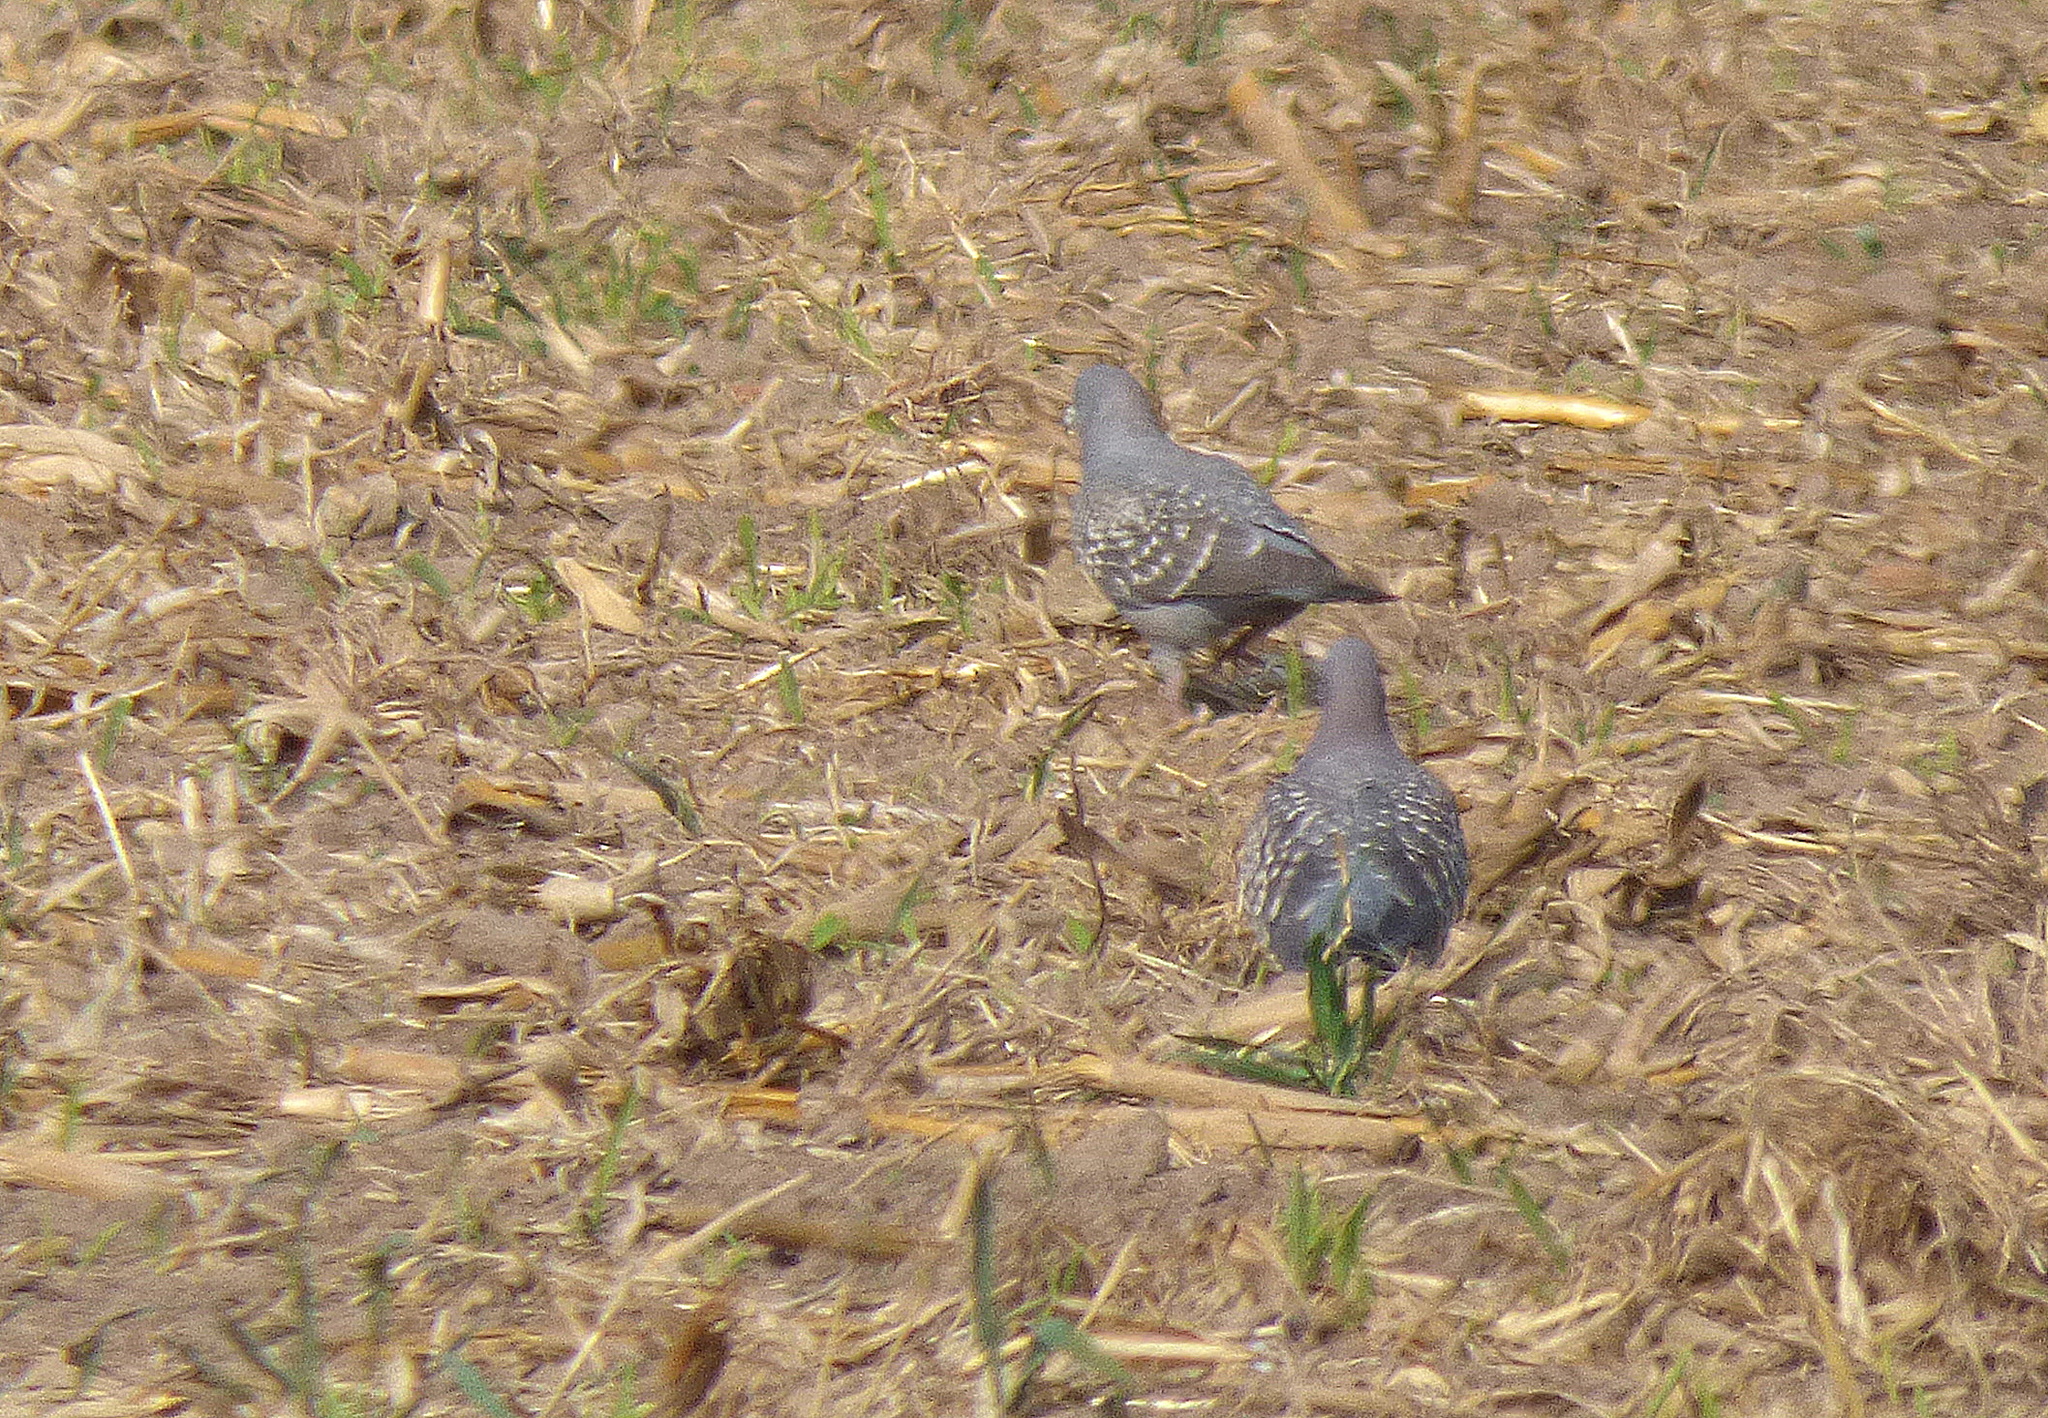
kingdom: Animalia
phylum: Chordata
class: Aves
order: Columbiformes
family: Columbidae
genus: Patagioenas
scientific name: Patagioenas maculosa
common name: Spot-winged pigeon
